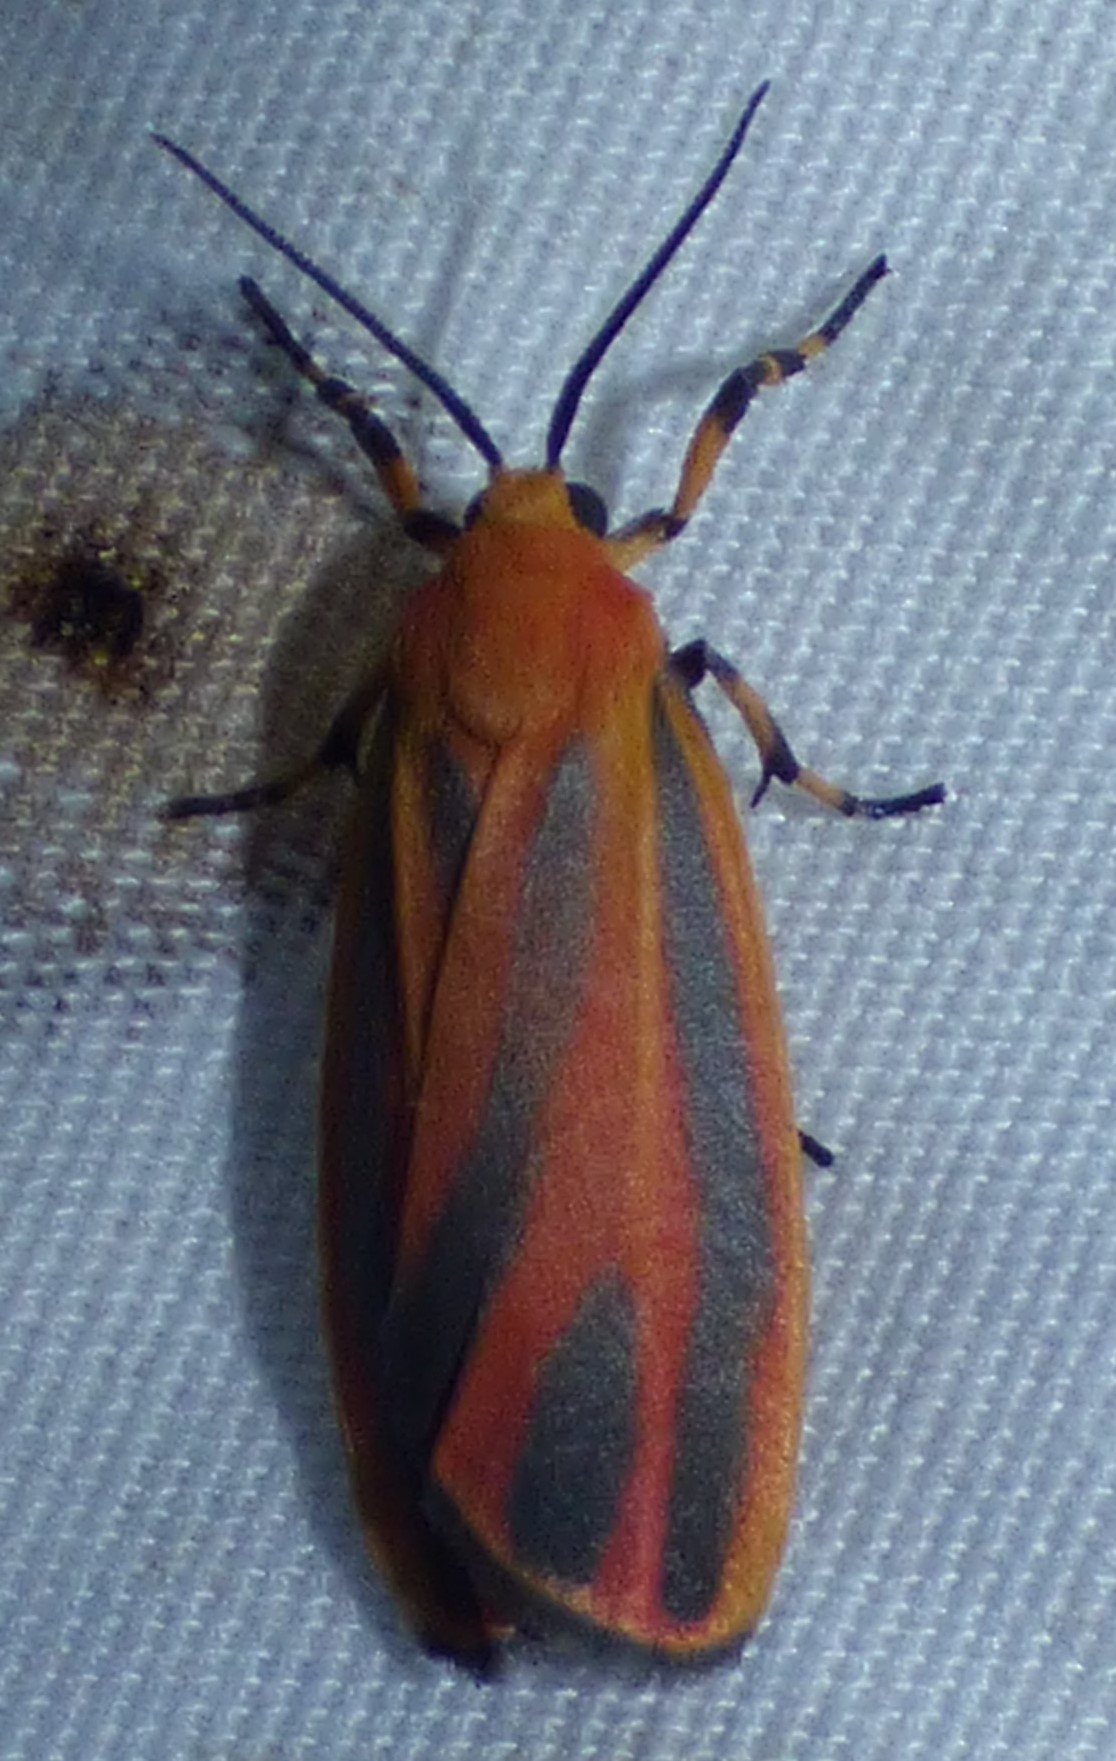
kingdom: Animalia
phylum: Arthropoda
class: Insecta
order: Lepidoptera
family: Erebidae
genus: Hypoprepia
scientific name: Hypoprepia miniata
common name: Scarlet-winged lichen moth
